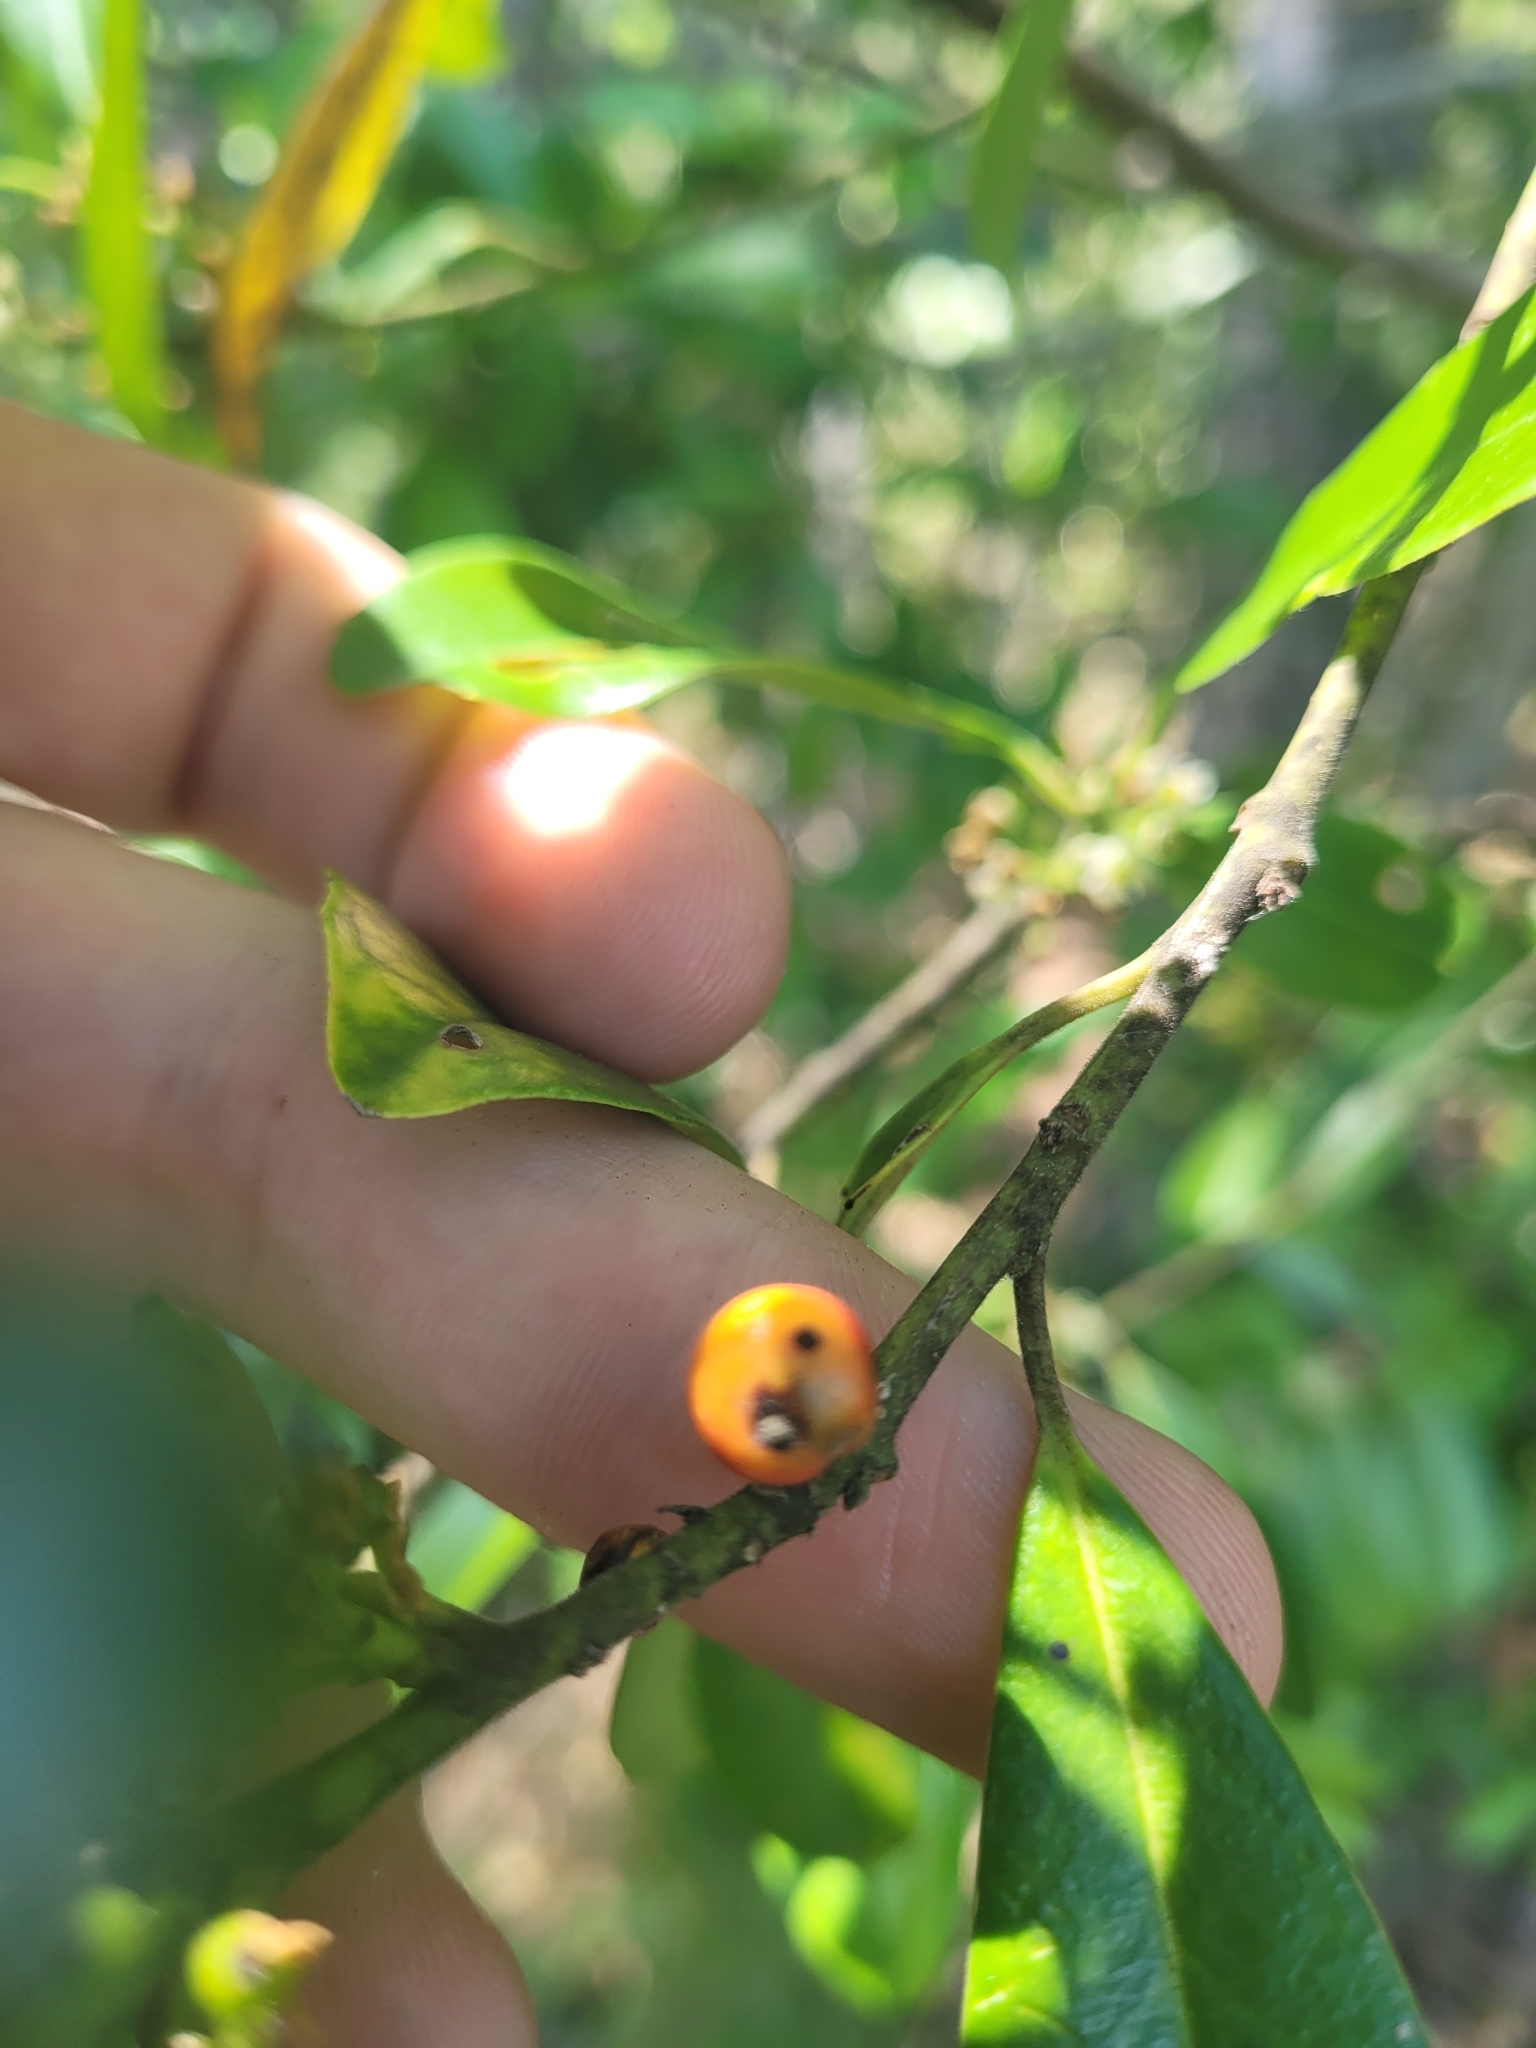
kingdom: Plantae
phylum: Tracheophyta
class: Magnoliopsida
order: Aquifoliales
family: Aquifoliaceae
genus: Ilex
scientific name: Ilex cassine
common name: Dahoon
